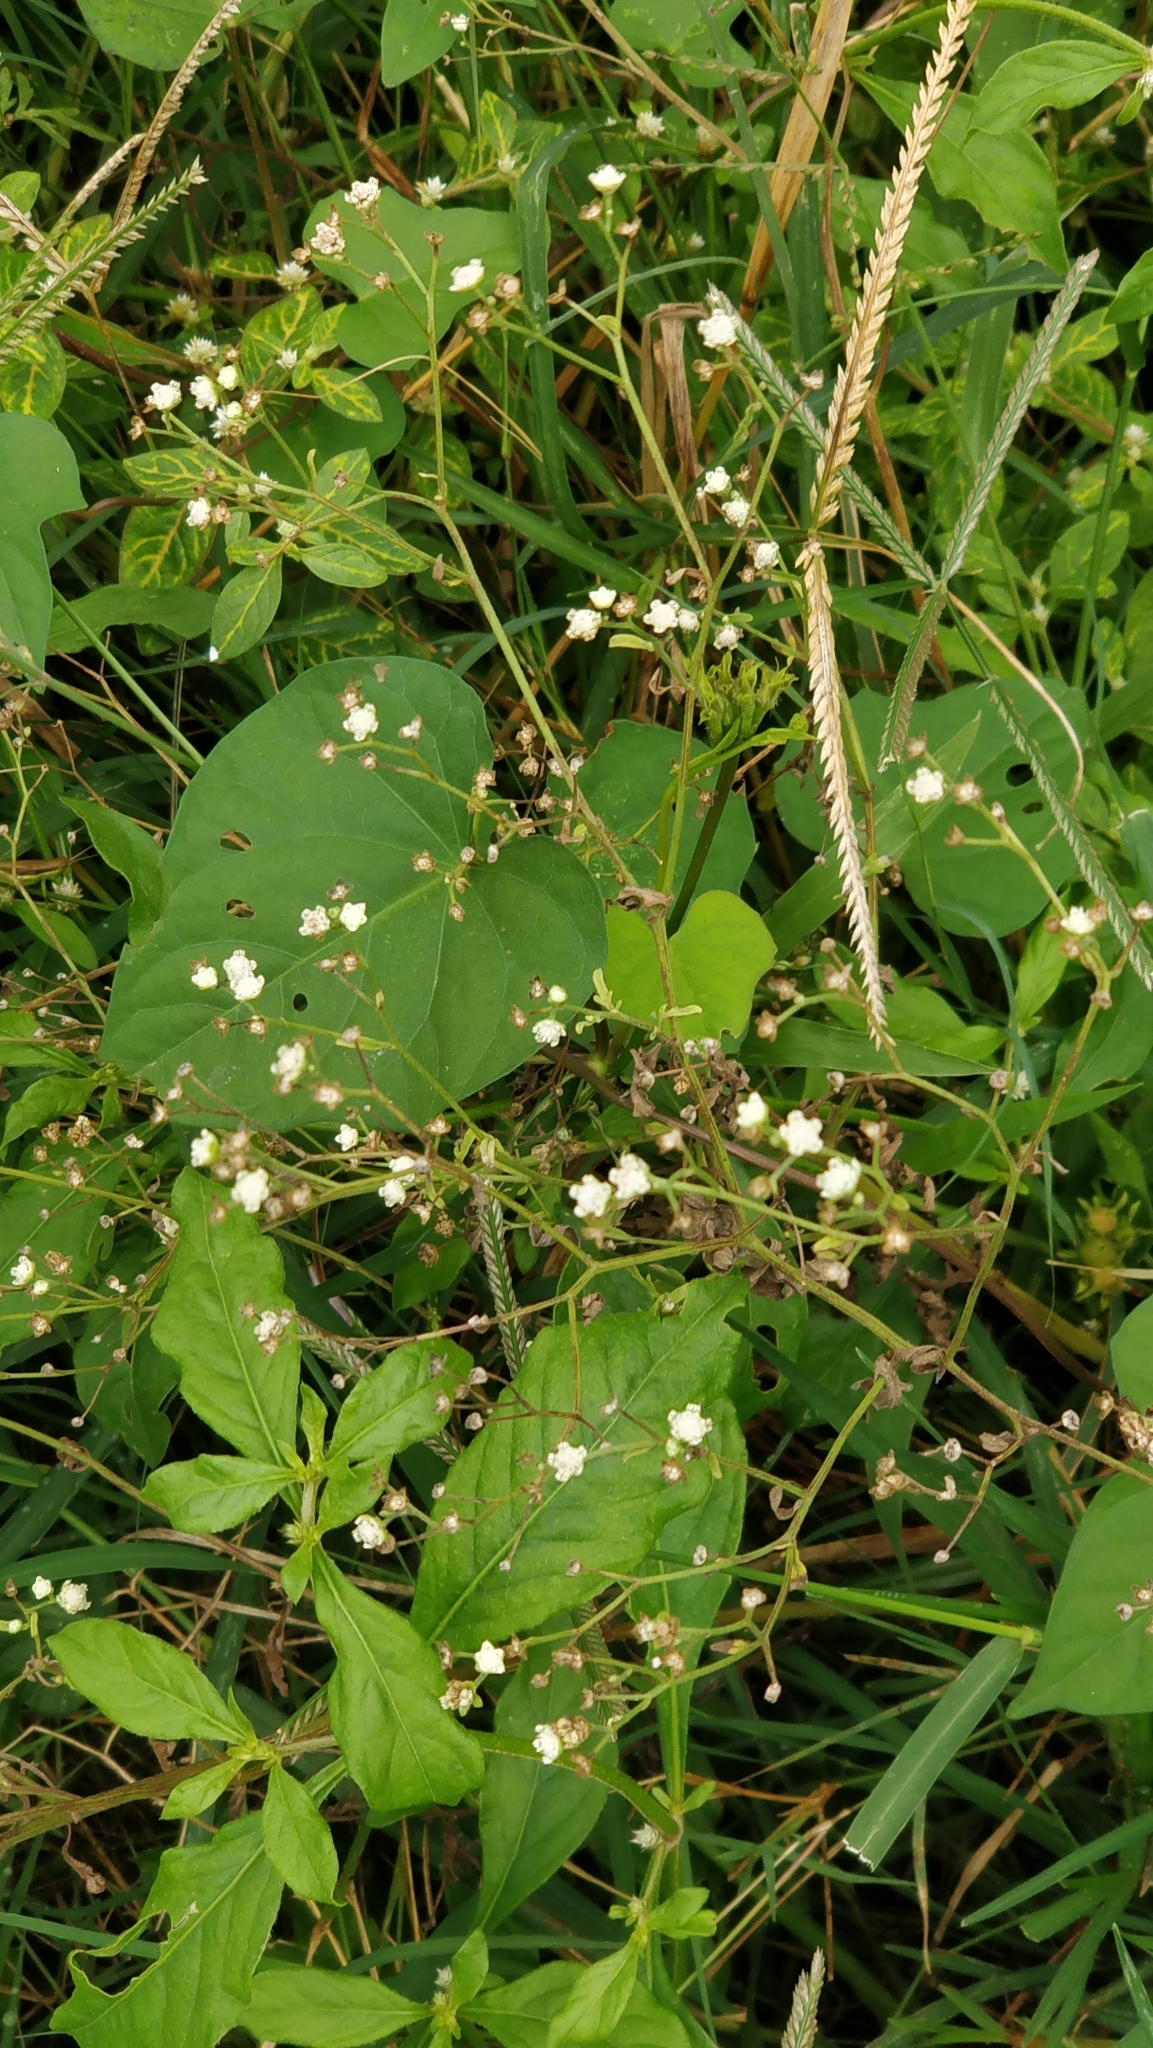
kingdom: Plantae
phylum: Tracheophyta
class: Magnoliopsida
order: Asterales
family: Asteraceae
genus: Parthenium
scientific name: Parthenium hysterophorus
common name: Santa maria feverfew
